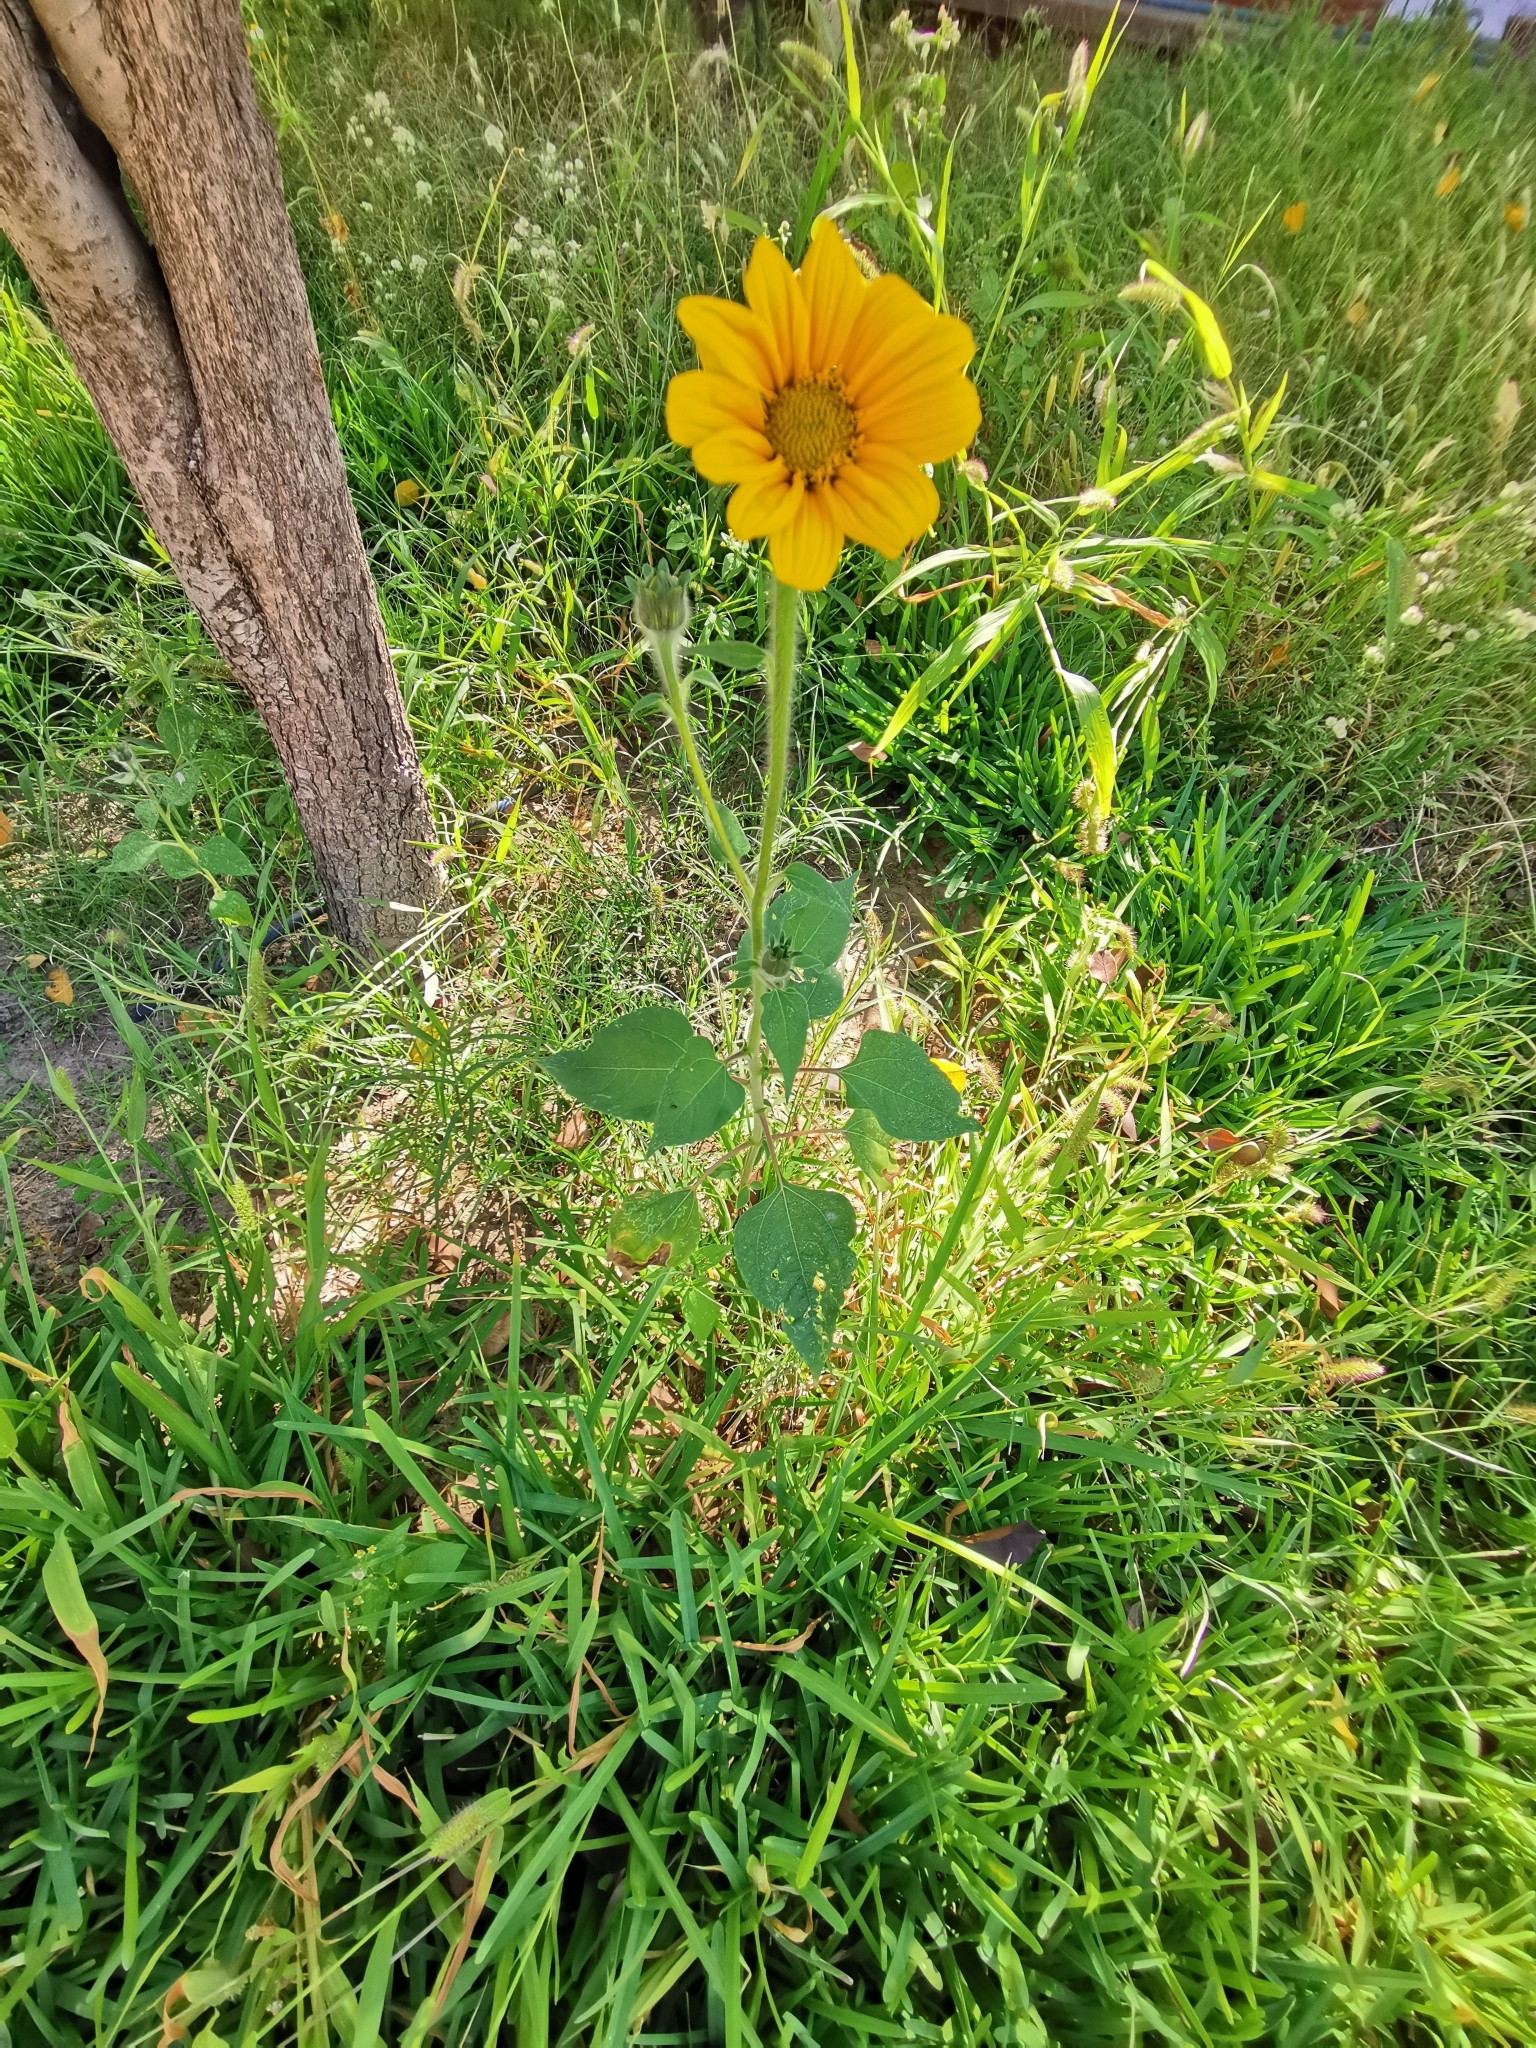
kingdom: Plantae
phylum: Tracheophyta
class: Magnoliopsida
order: Asterales
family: Asteraceae
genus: Tithonia
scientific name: Tithonia tubaeformis
